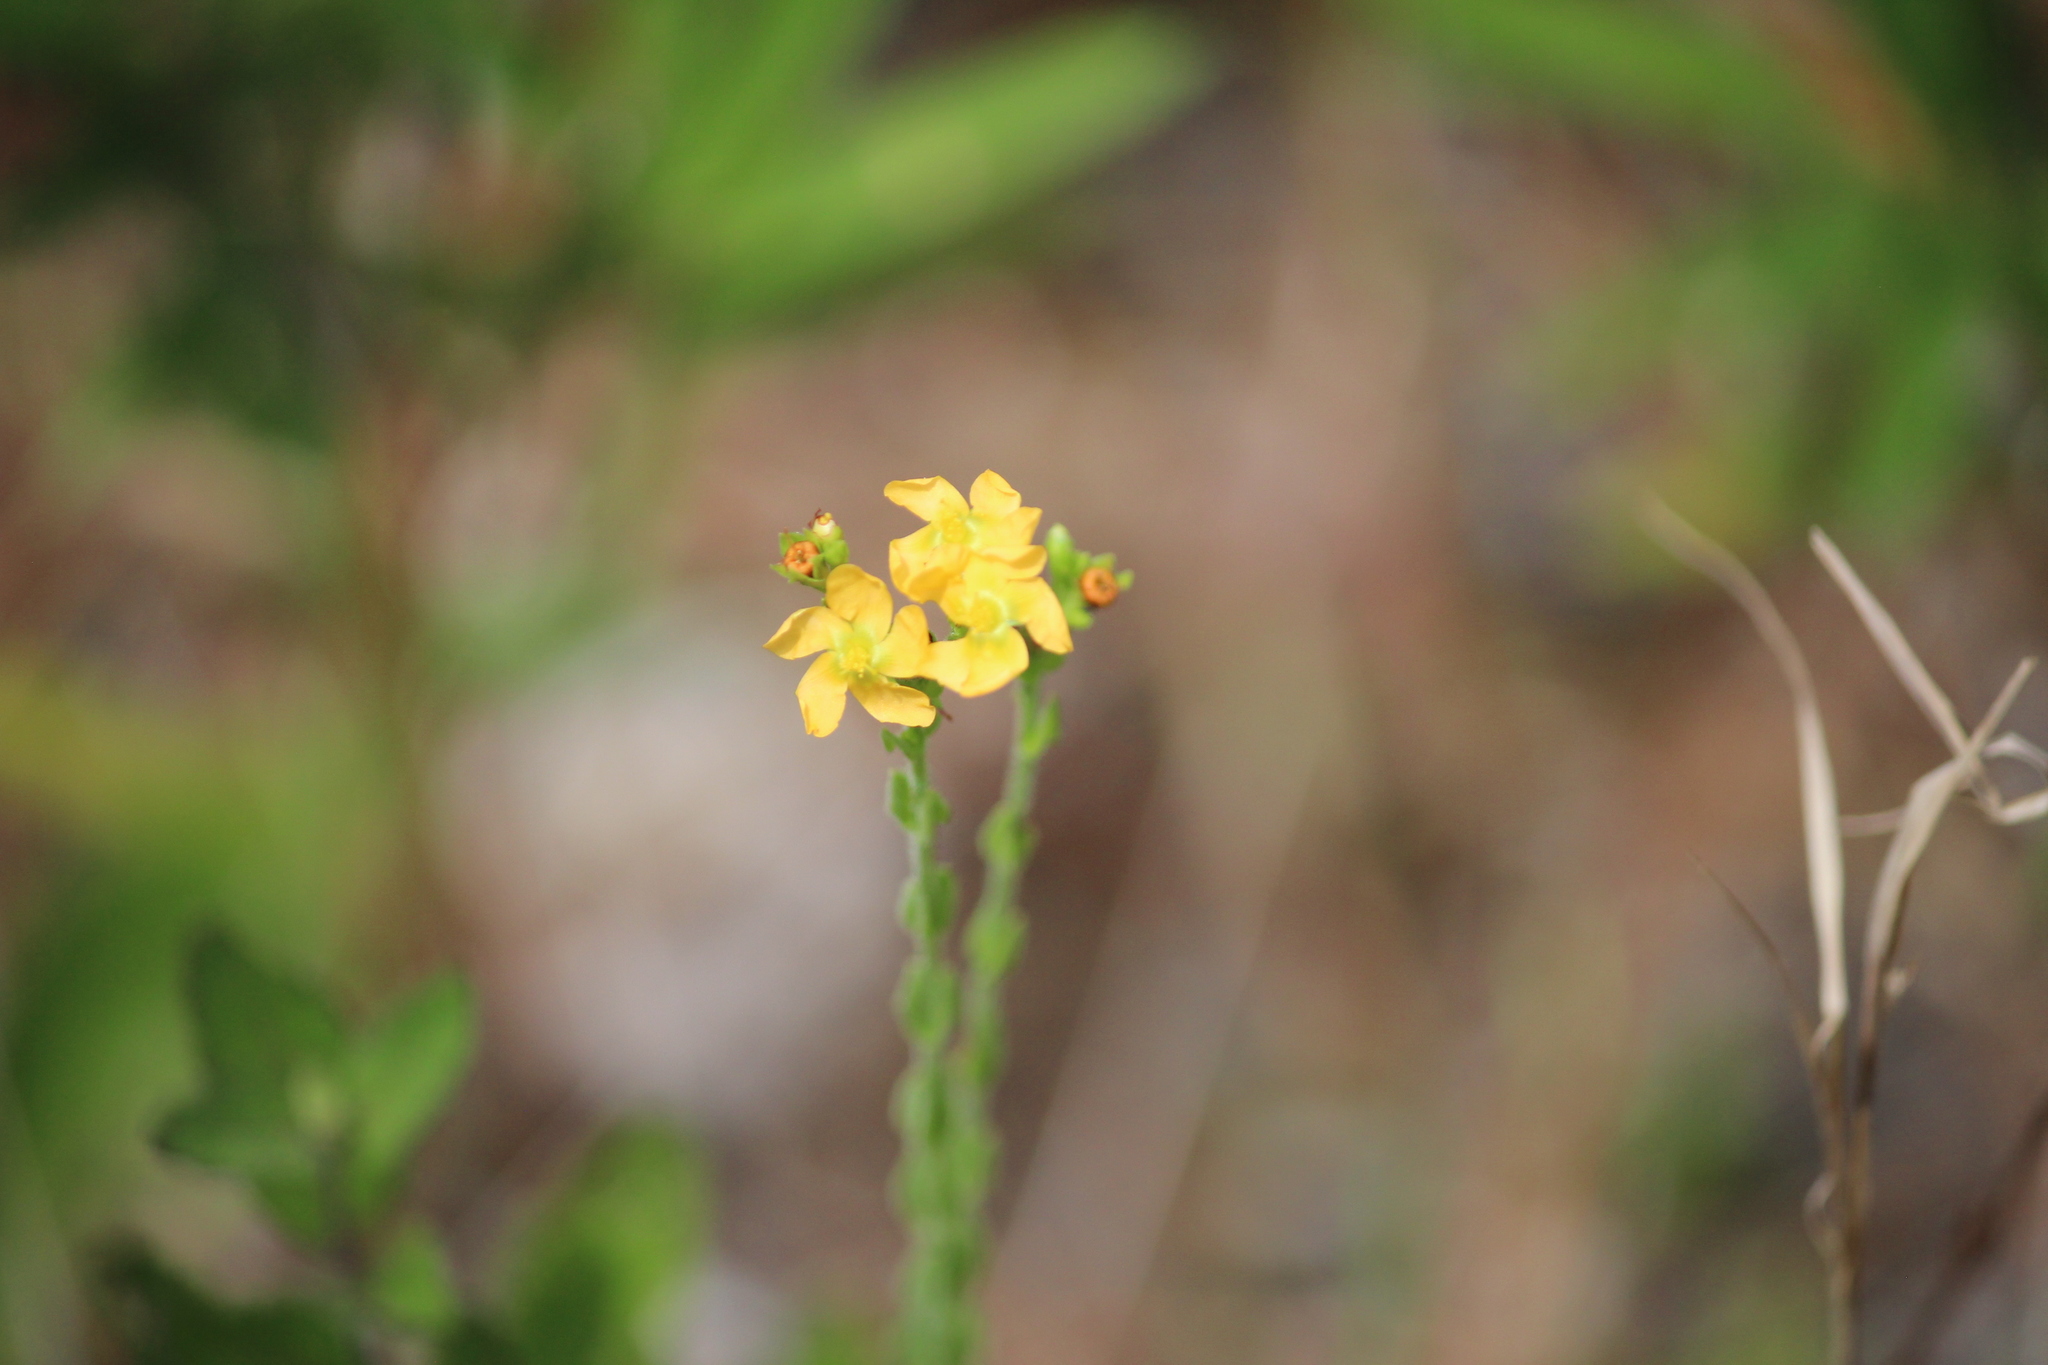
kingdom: Plantae
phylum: Tracheophyta
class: Magnoliopsida
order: Malpighiales
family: Hypericaceae
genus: Hypericum
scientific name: Hypericum drummondii
